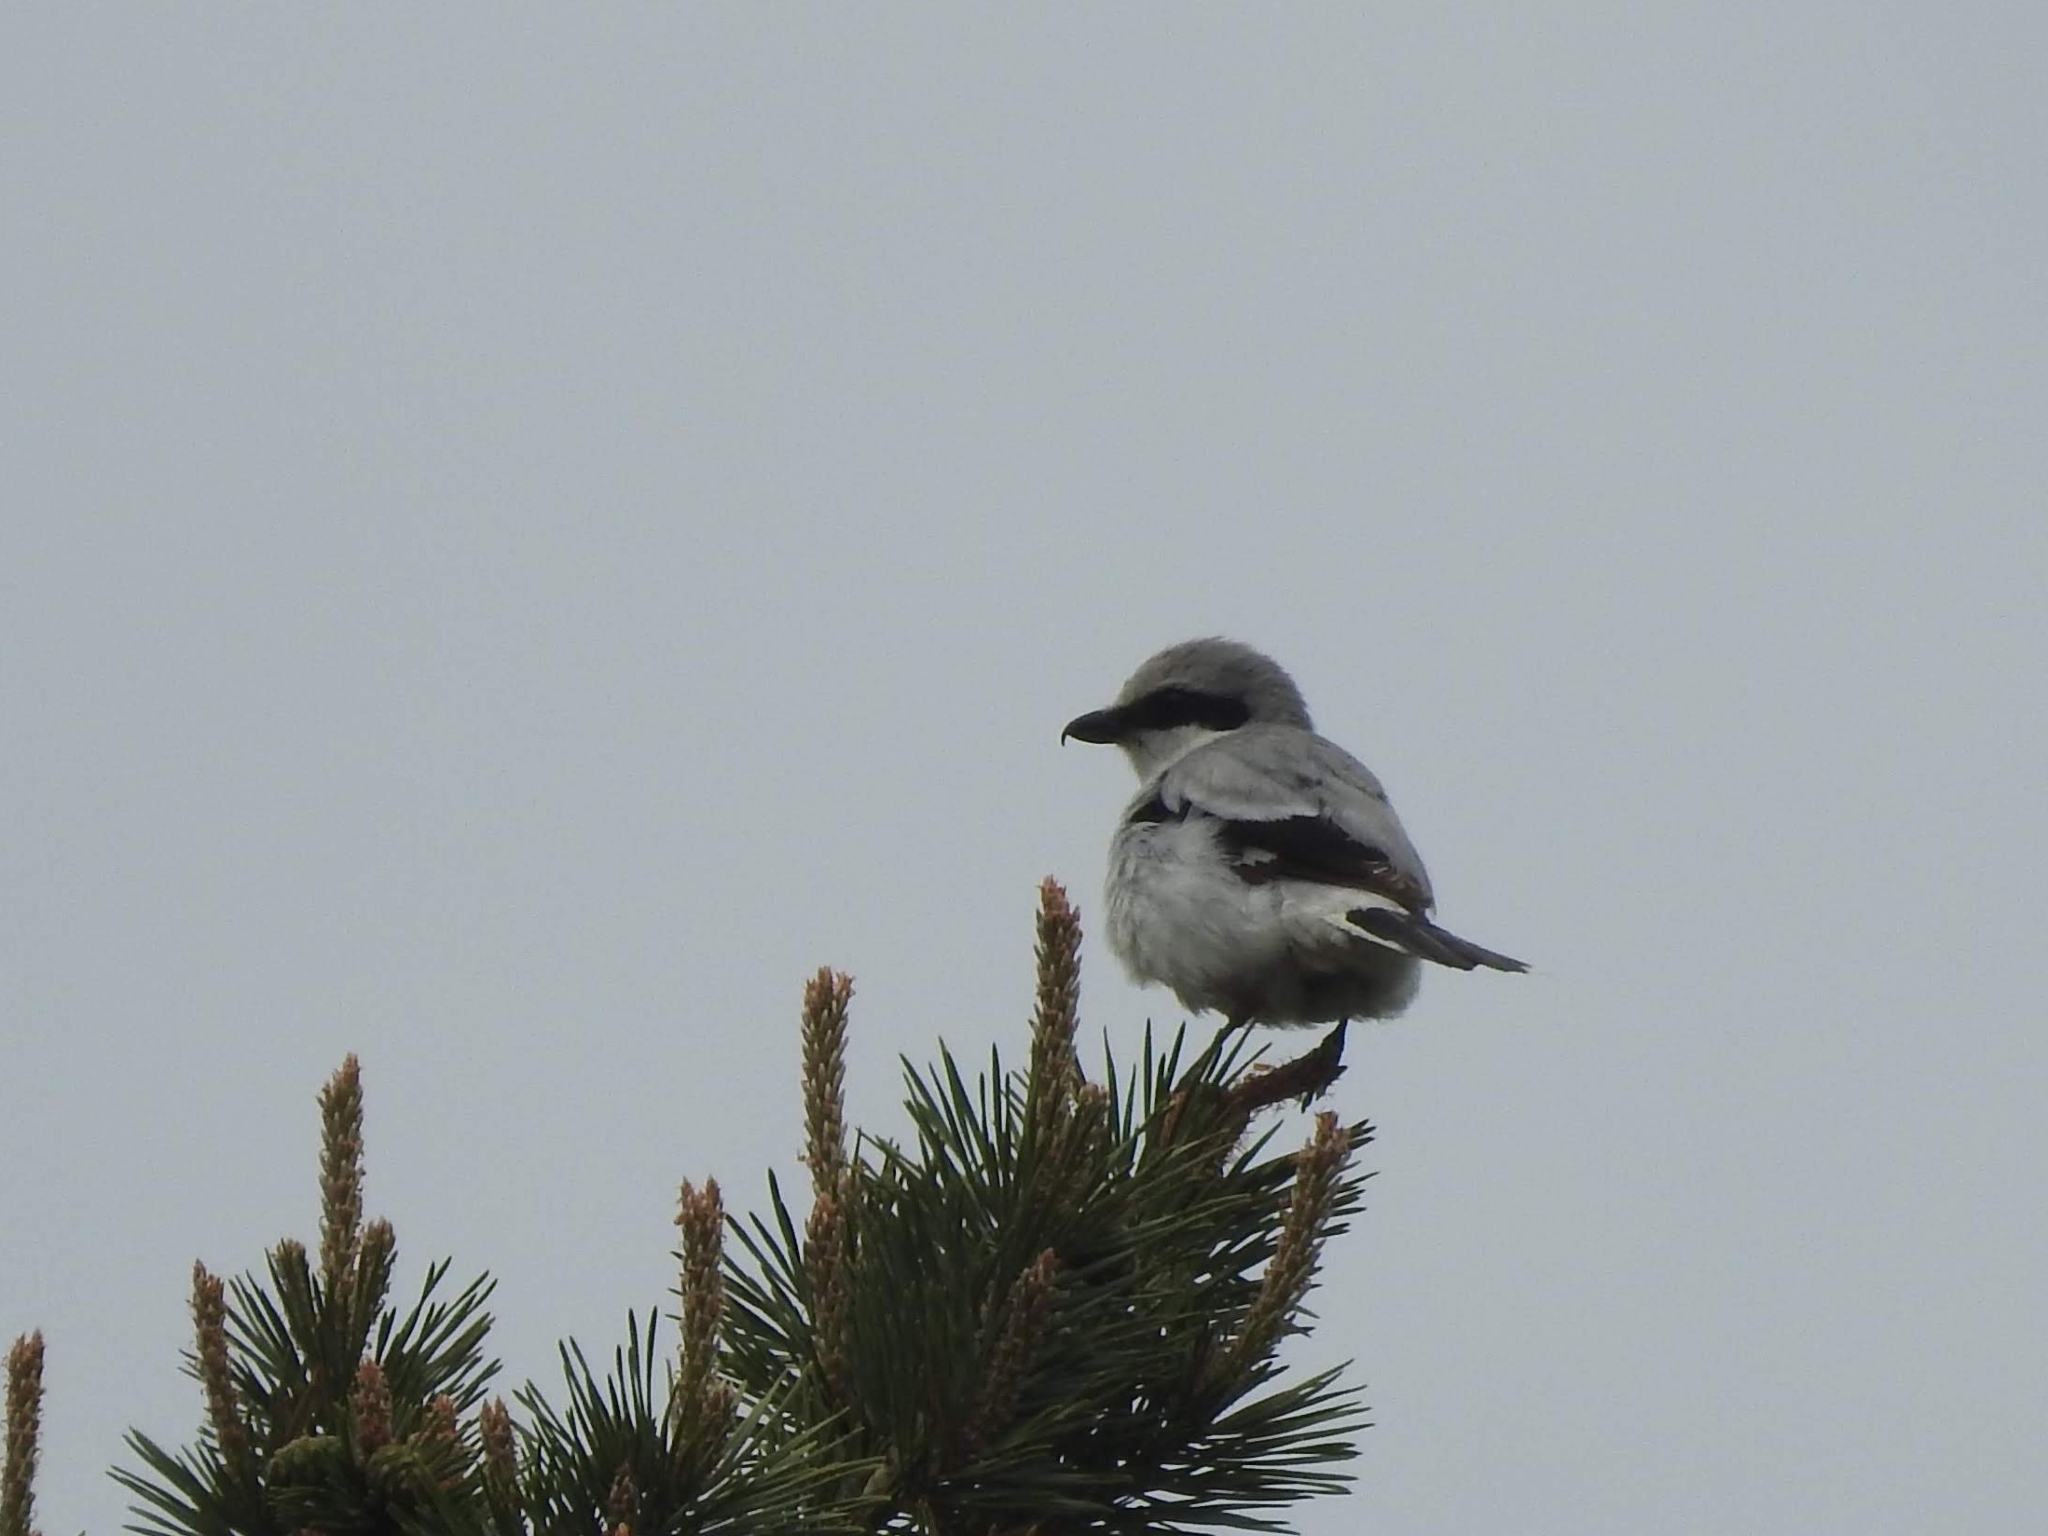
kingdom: Animalia
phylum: Chordata
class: Aves
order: Passeriformes
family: Laniidae
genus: Lanius
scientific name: Lanius excubitor
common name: Great grey shrike
